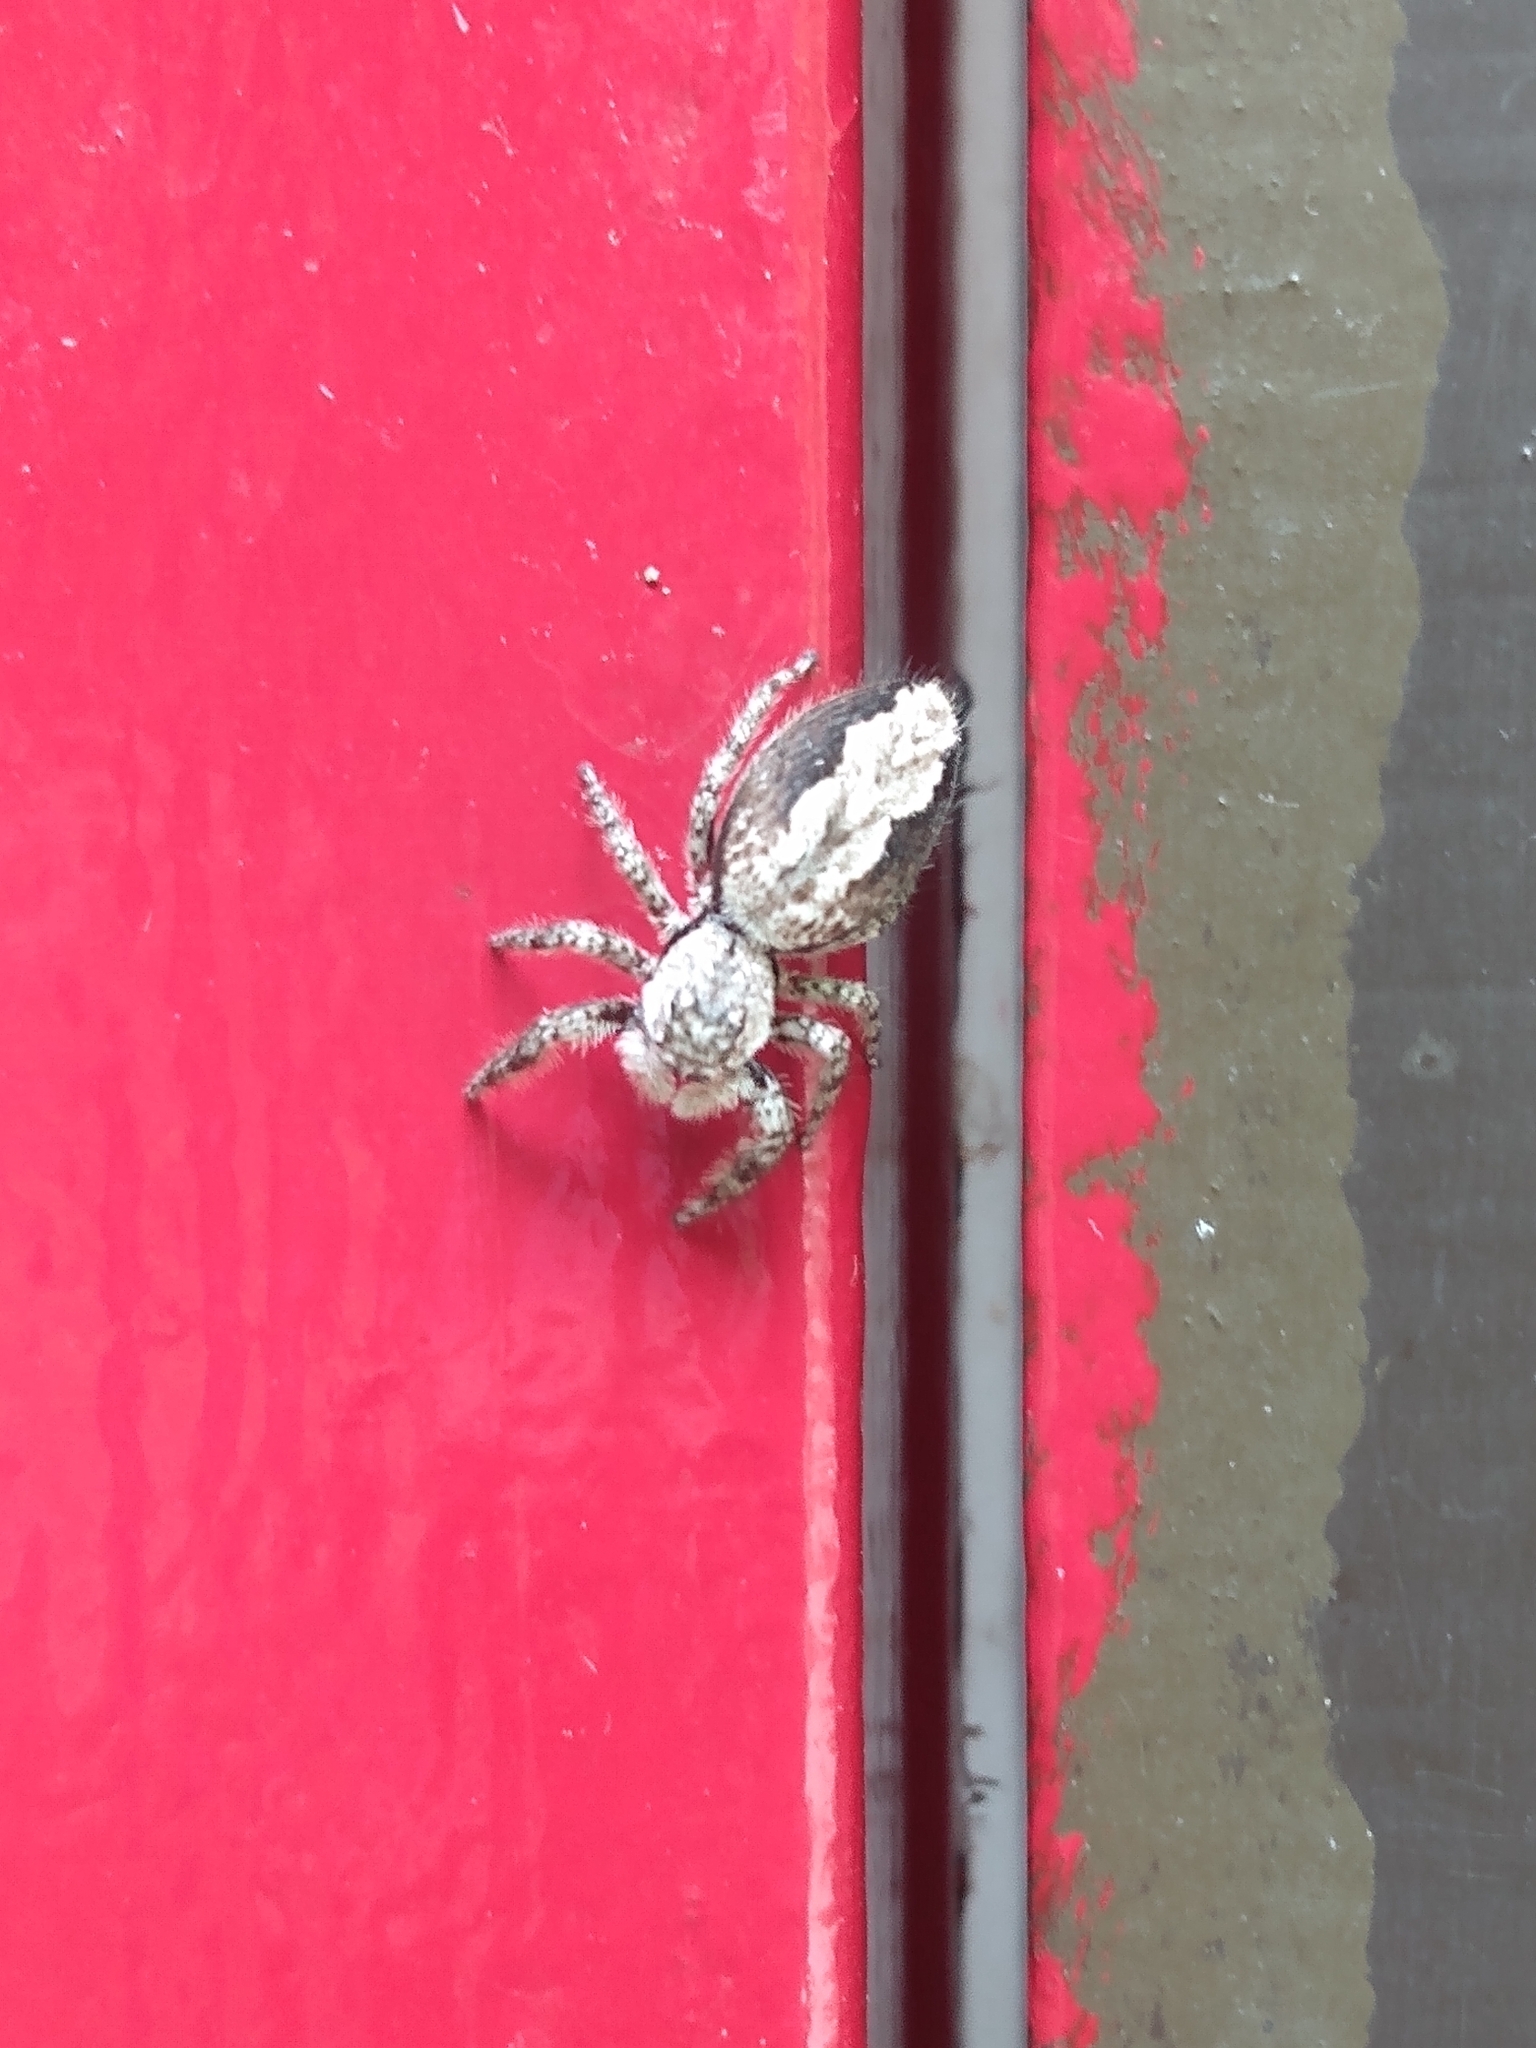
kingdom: Animalia
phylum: Arthropoda
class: Arachnida
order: Araneae
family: Salticidae
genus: Platycryptus
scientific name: Platycryptus undatus
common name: Tan jumping spider
